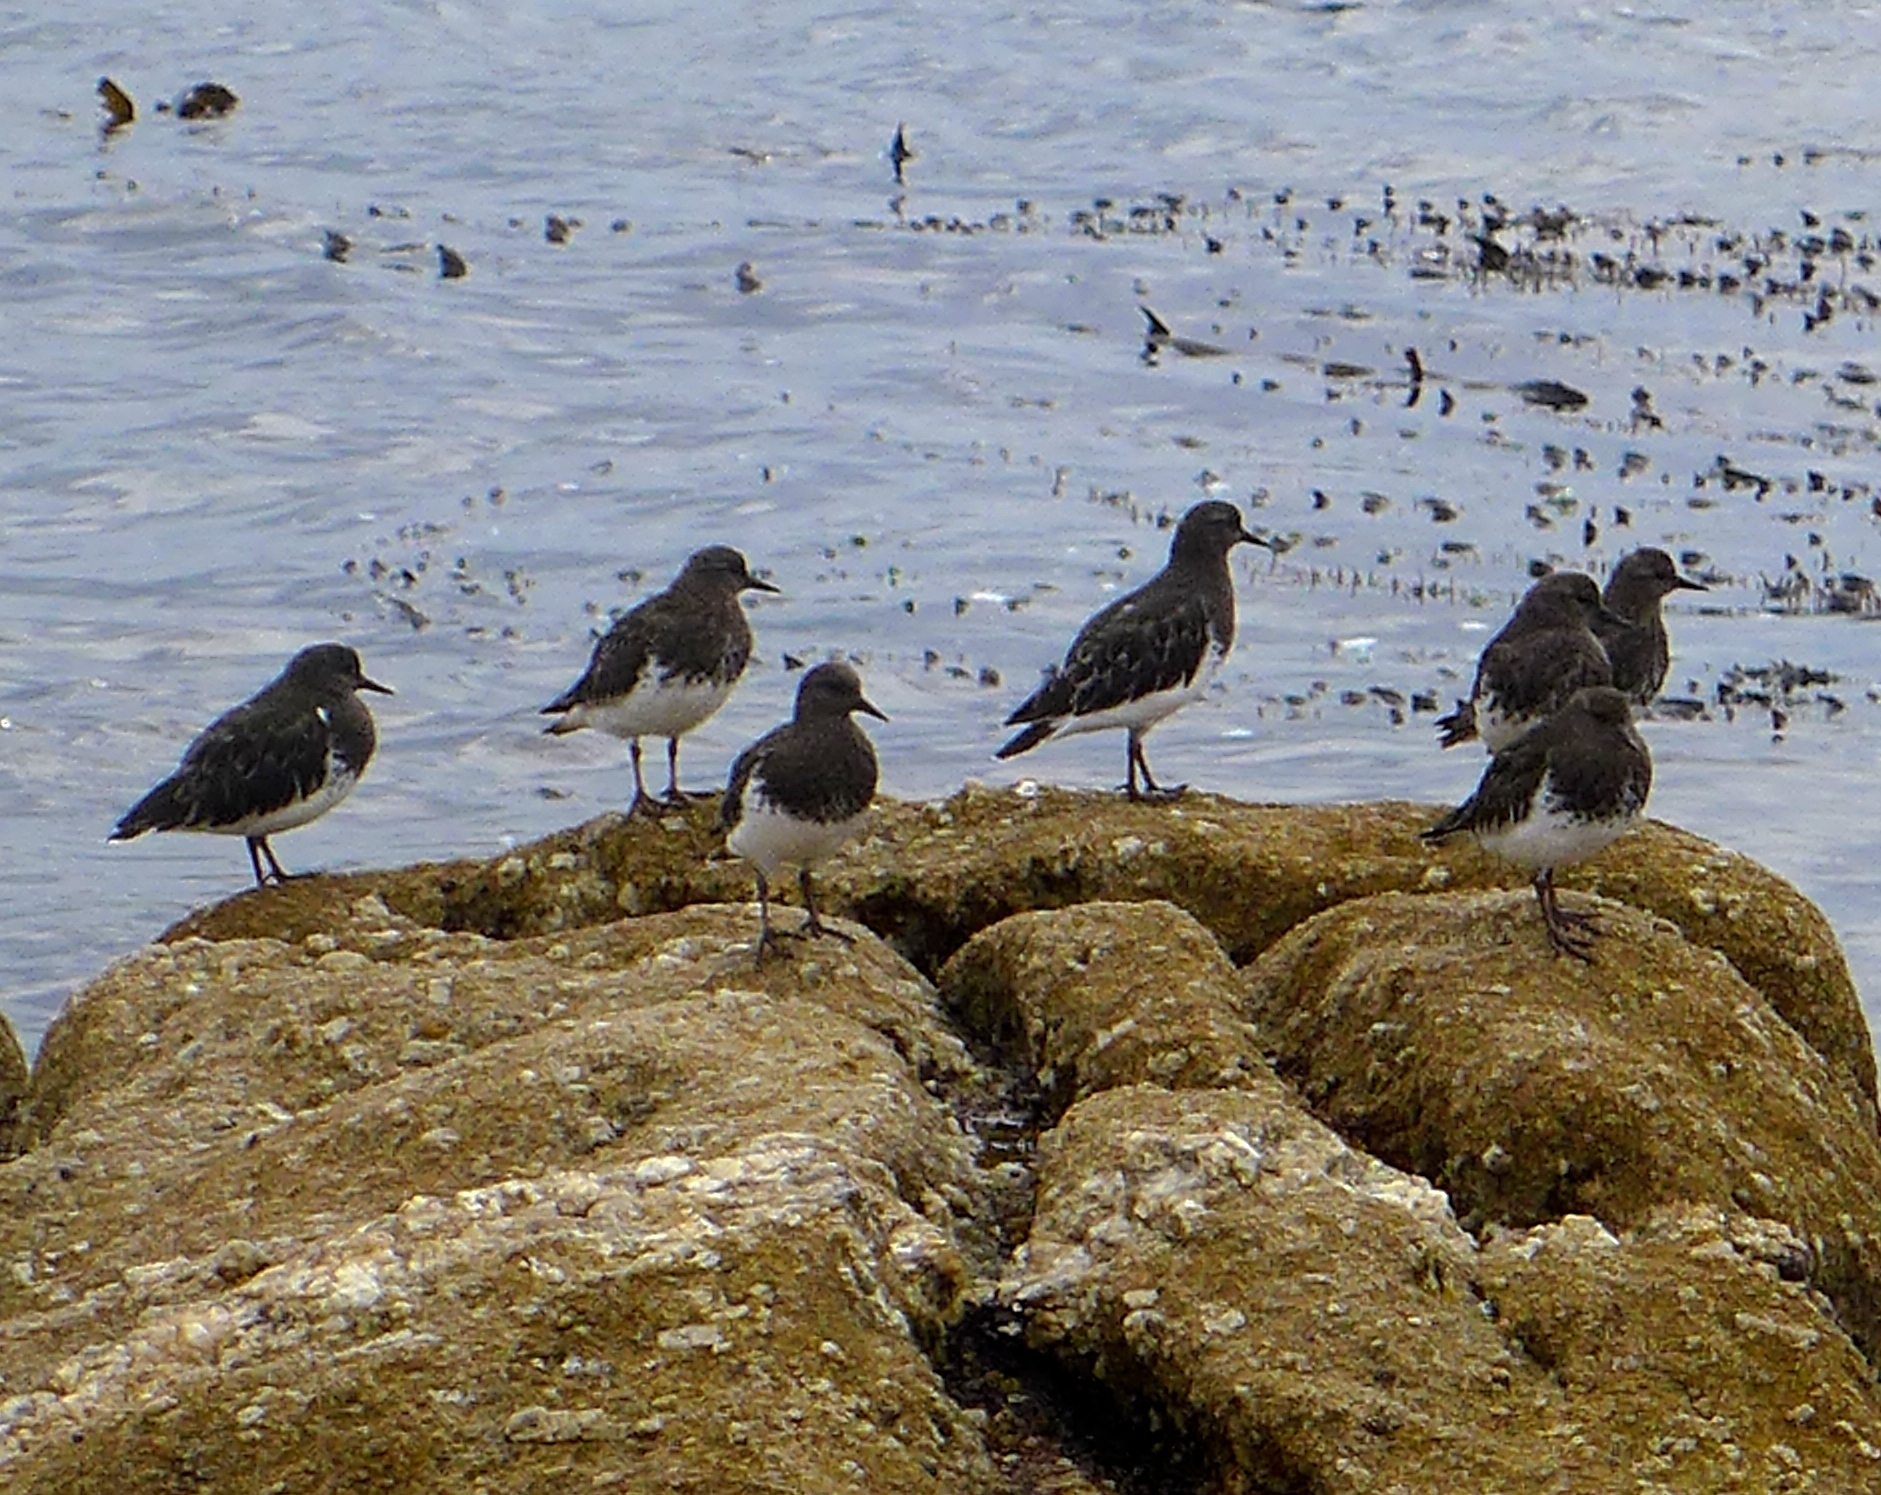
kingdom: Animalia
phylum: Chordata
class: Aves
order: Charadriiformes
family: Scolopacidae
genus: Arenaria
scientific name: Arenaria melanocephala
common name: Black turnstone
